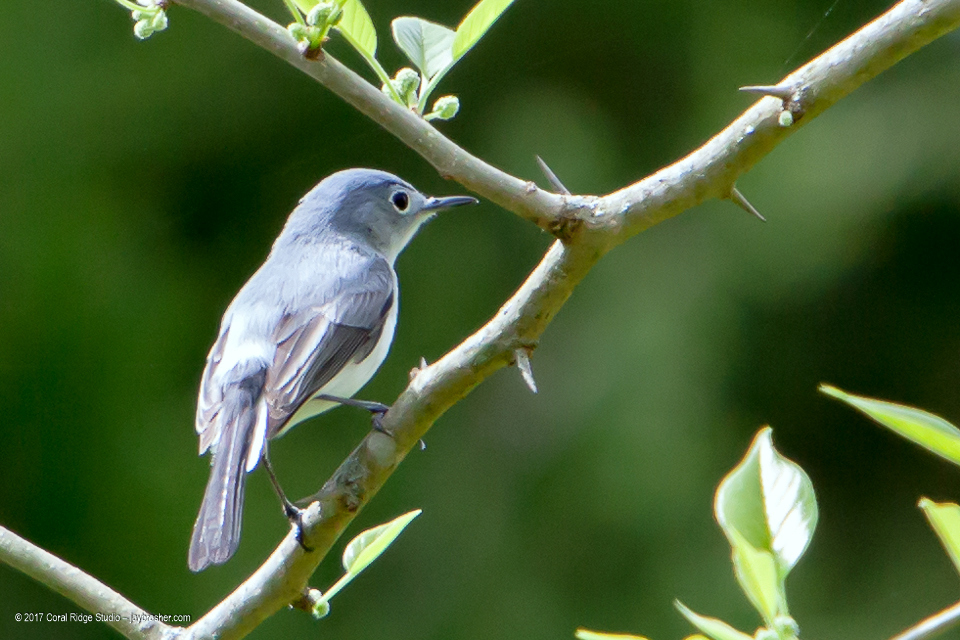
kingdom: Animalia
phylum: Chordata
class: Aves
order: Passeriformes
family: Polioptilidae
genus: Polioptila
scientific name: Polioptila caerulea
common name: Blue-gray gnatcatcher
